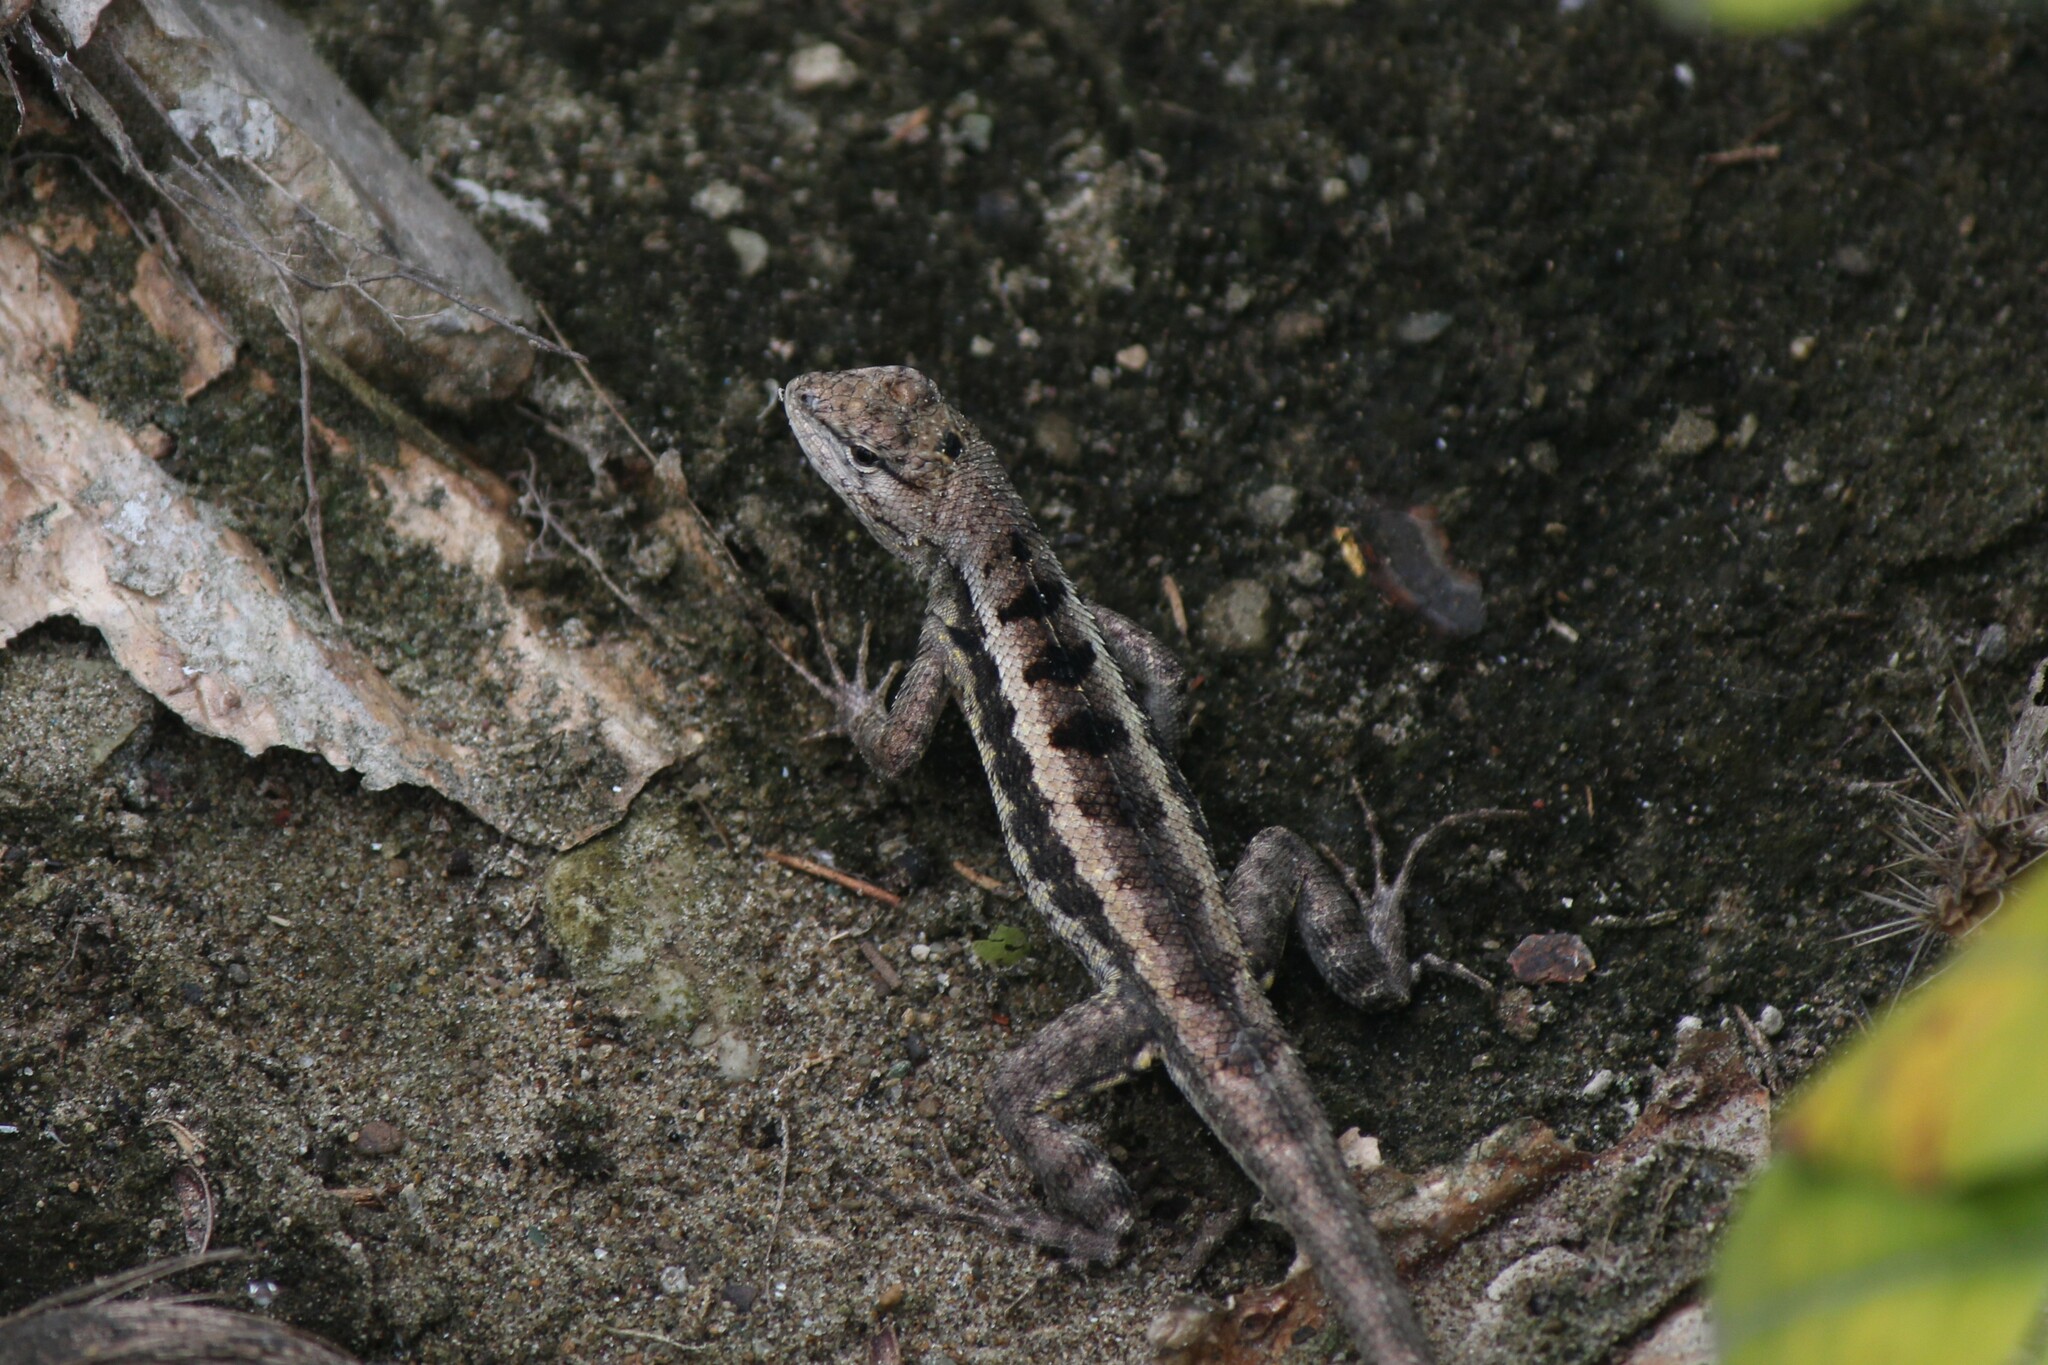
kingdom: Animalia
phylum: Chordata
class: Squamata
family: Tropiduridae
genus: Microlophus
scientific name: Microlophus occipitalis
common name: Knobbed pacific iguana
